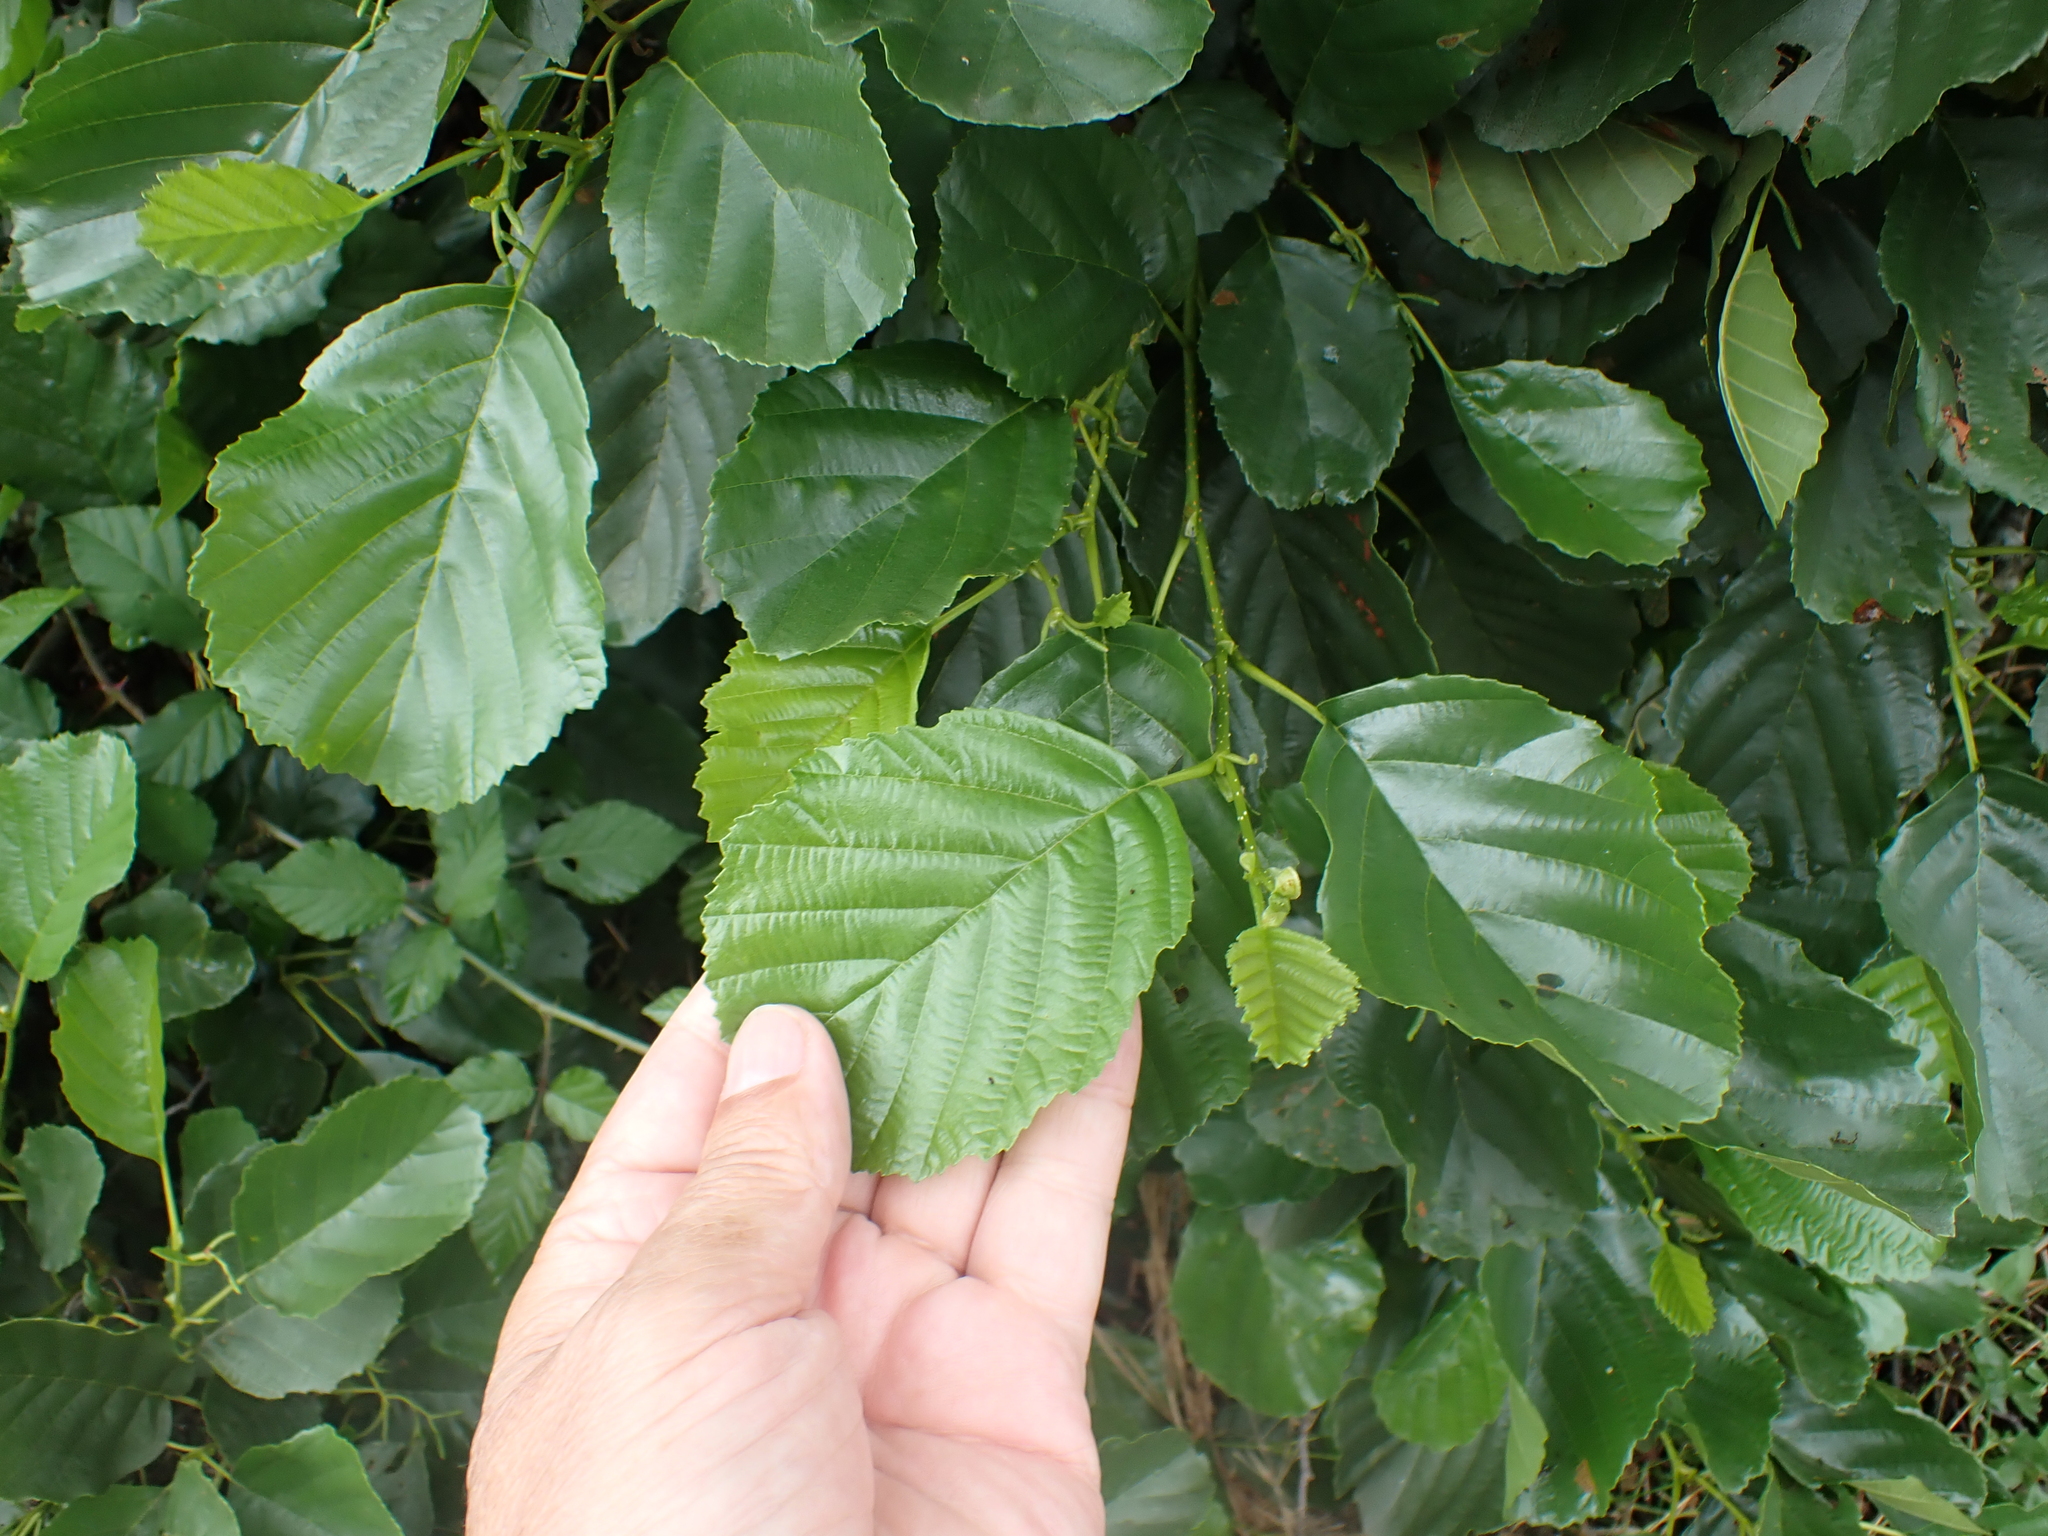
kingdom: Plantae
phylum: Tracheophyta
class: Magnoliopsida
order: Fagales
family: Betulaceae
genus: Alnus
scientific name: Alnus glutinosa
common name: Black alder
